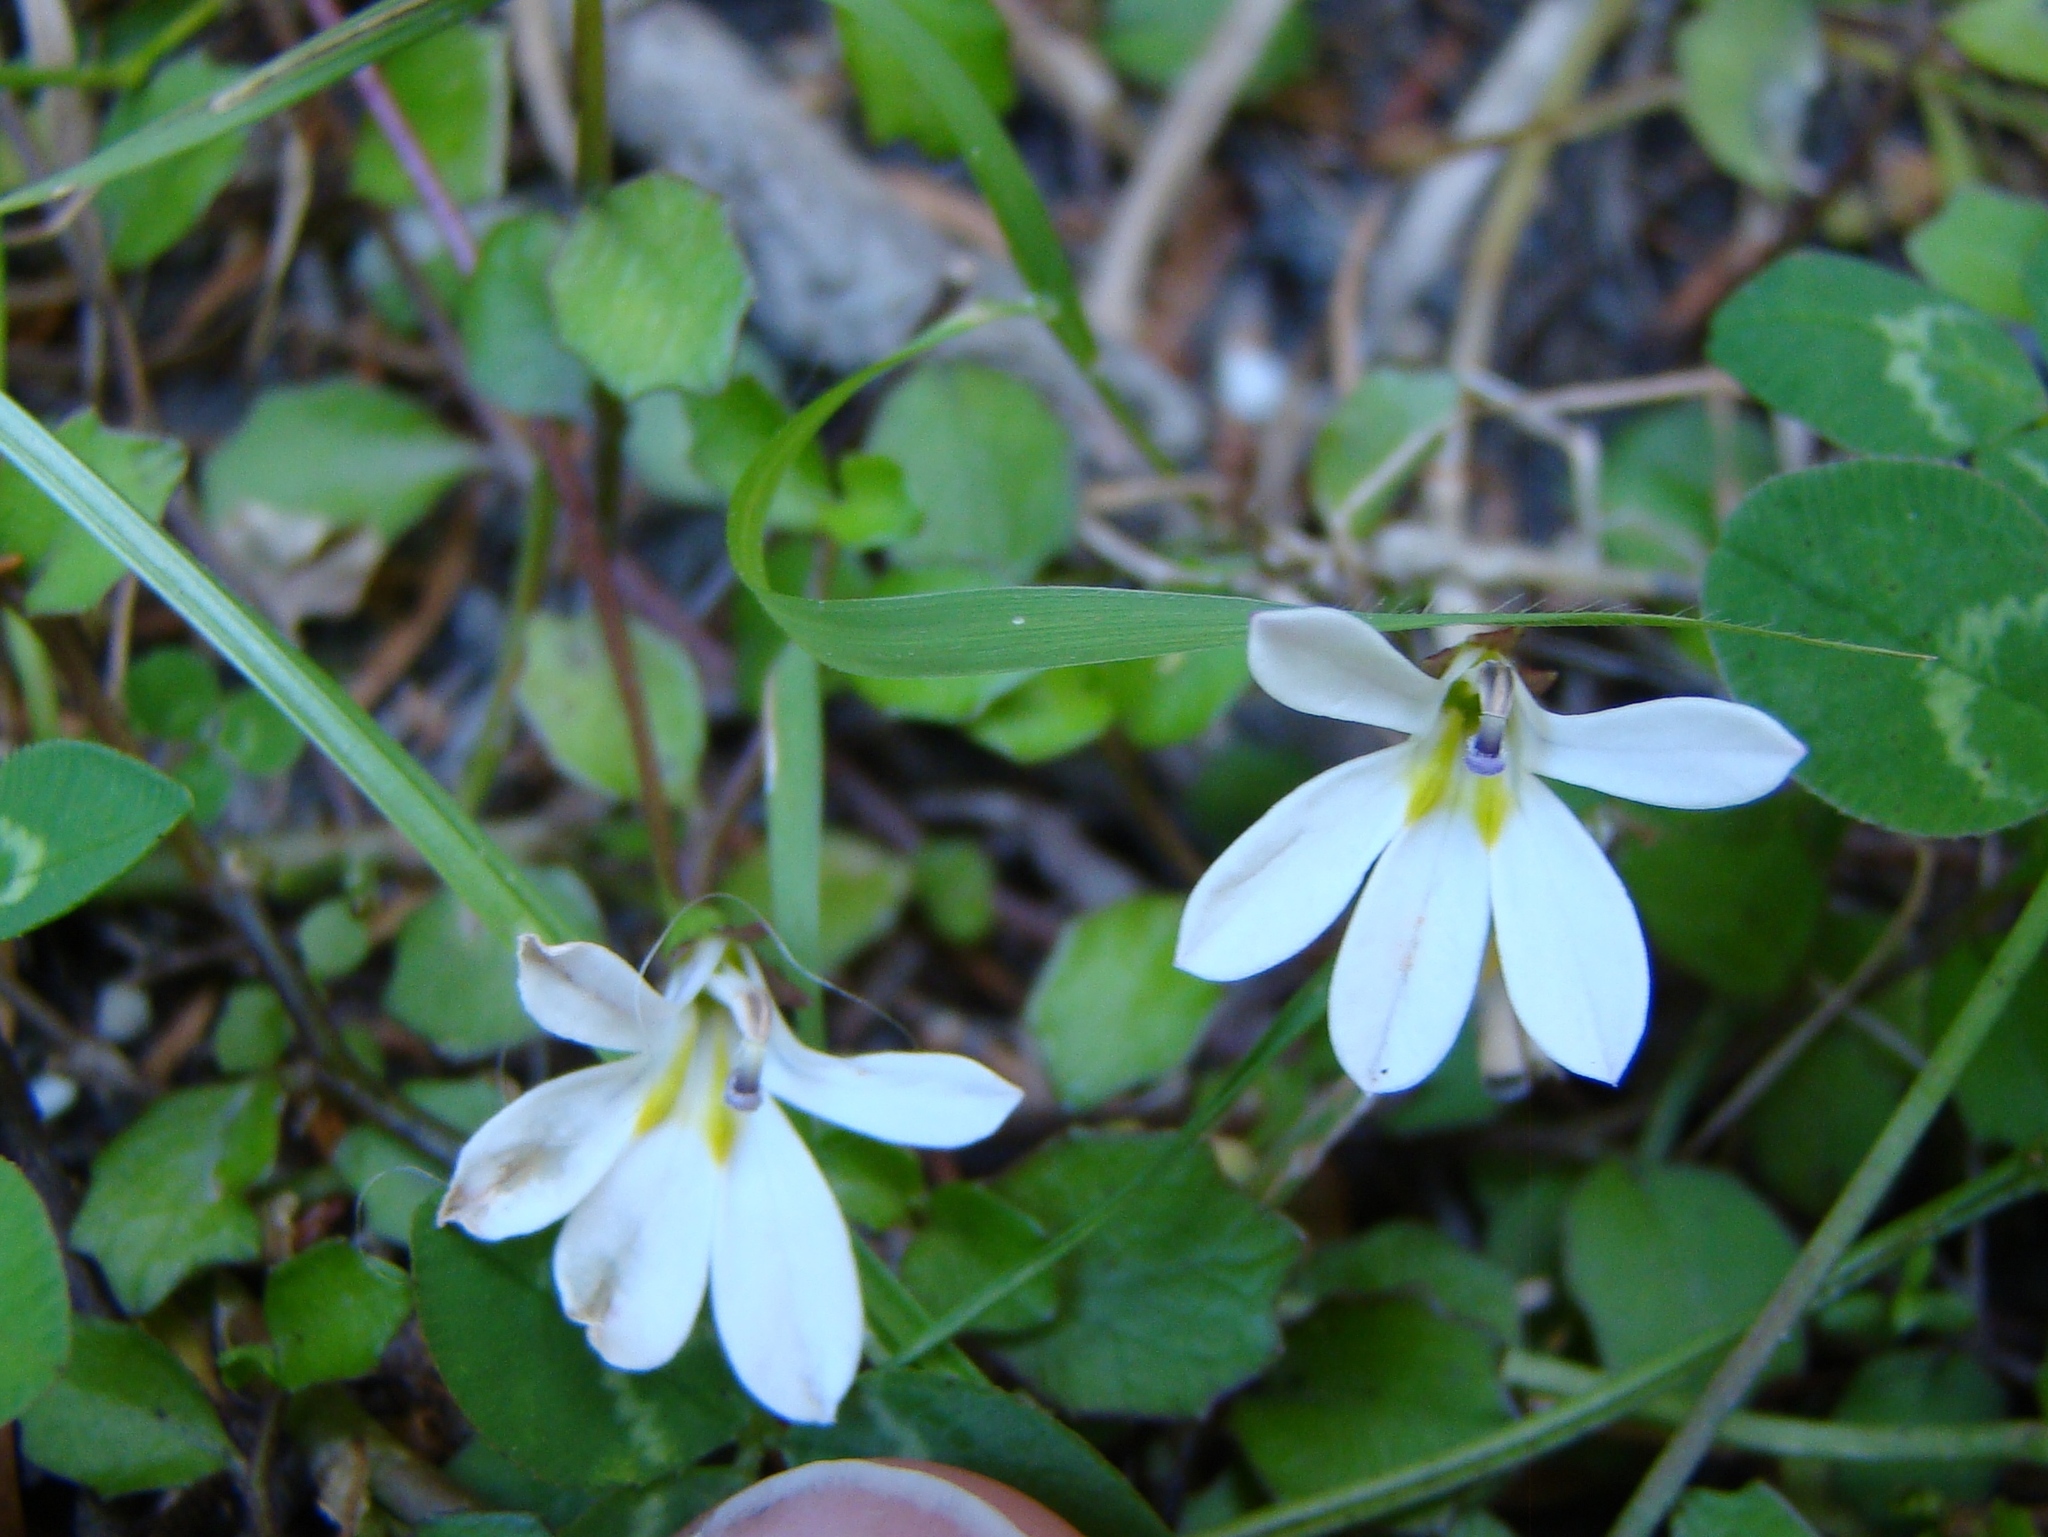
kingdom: Plantae
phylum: Tracheophyta
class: Magnoliopsida
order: Asterales
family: Campanulaceae
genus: Lobelia
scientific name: Lobelia angulata
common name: Lawn lobelia
